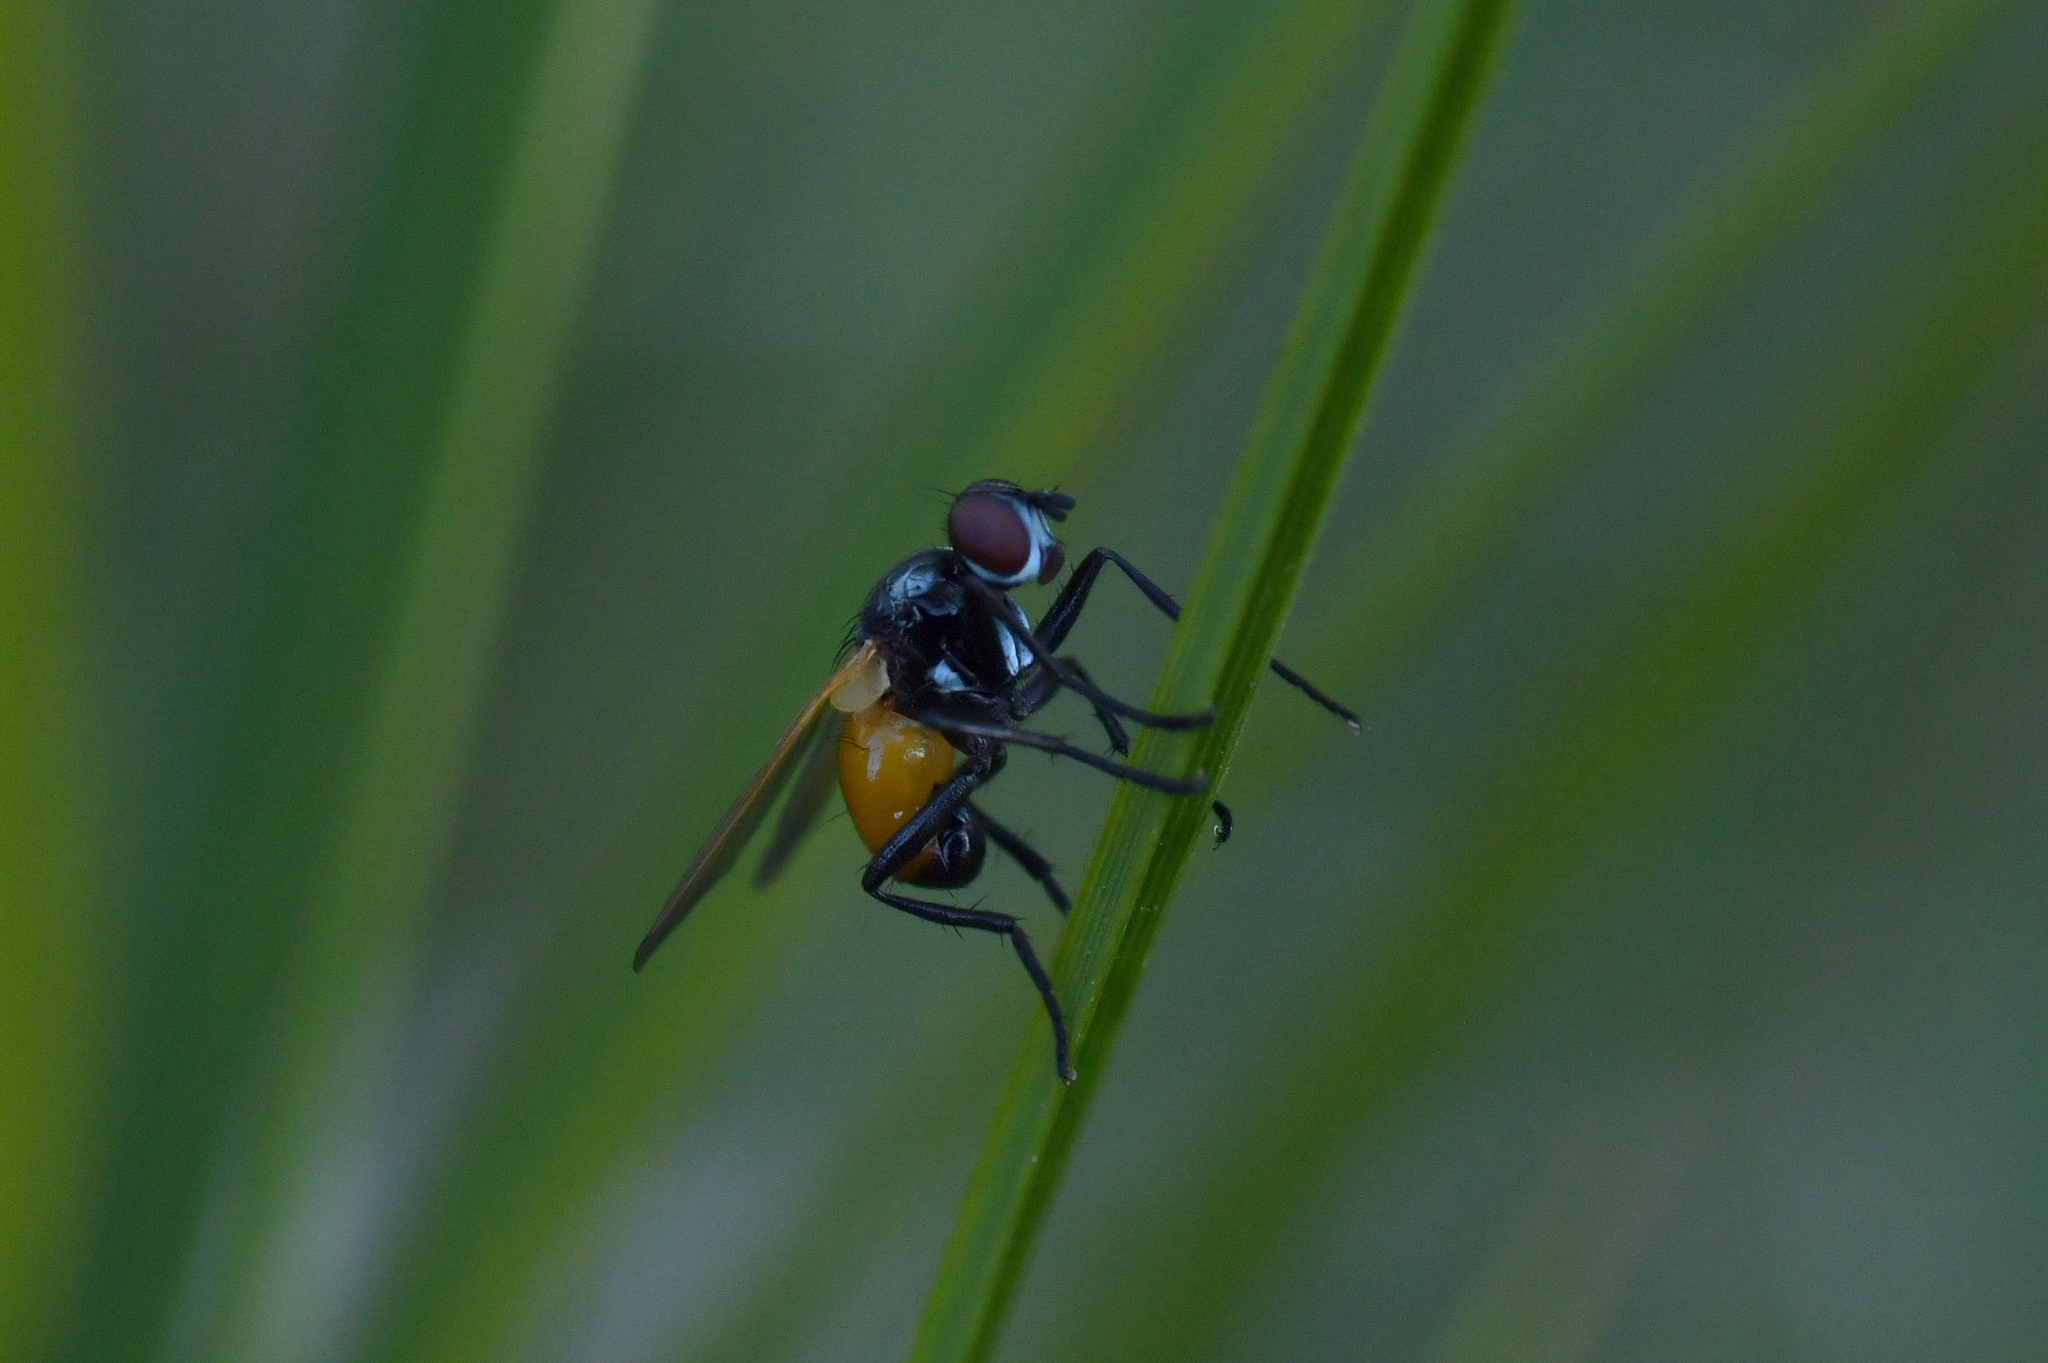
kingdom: Animalia
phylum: Arthropoda
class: Insecta
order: Diptera
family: Tachinidae
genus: Huttonobesseria
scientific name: Huttonobesseria verecunda
